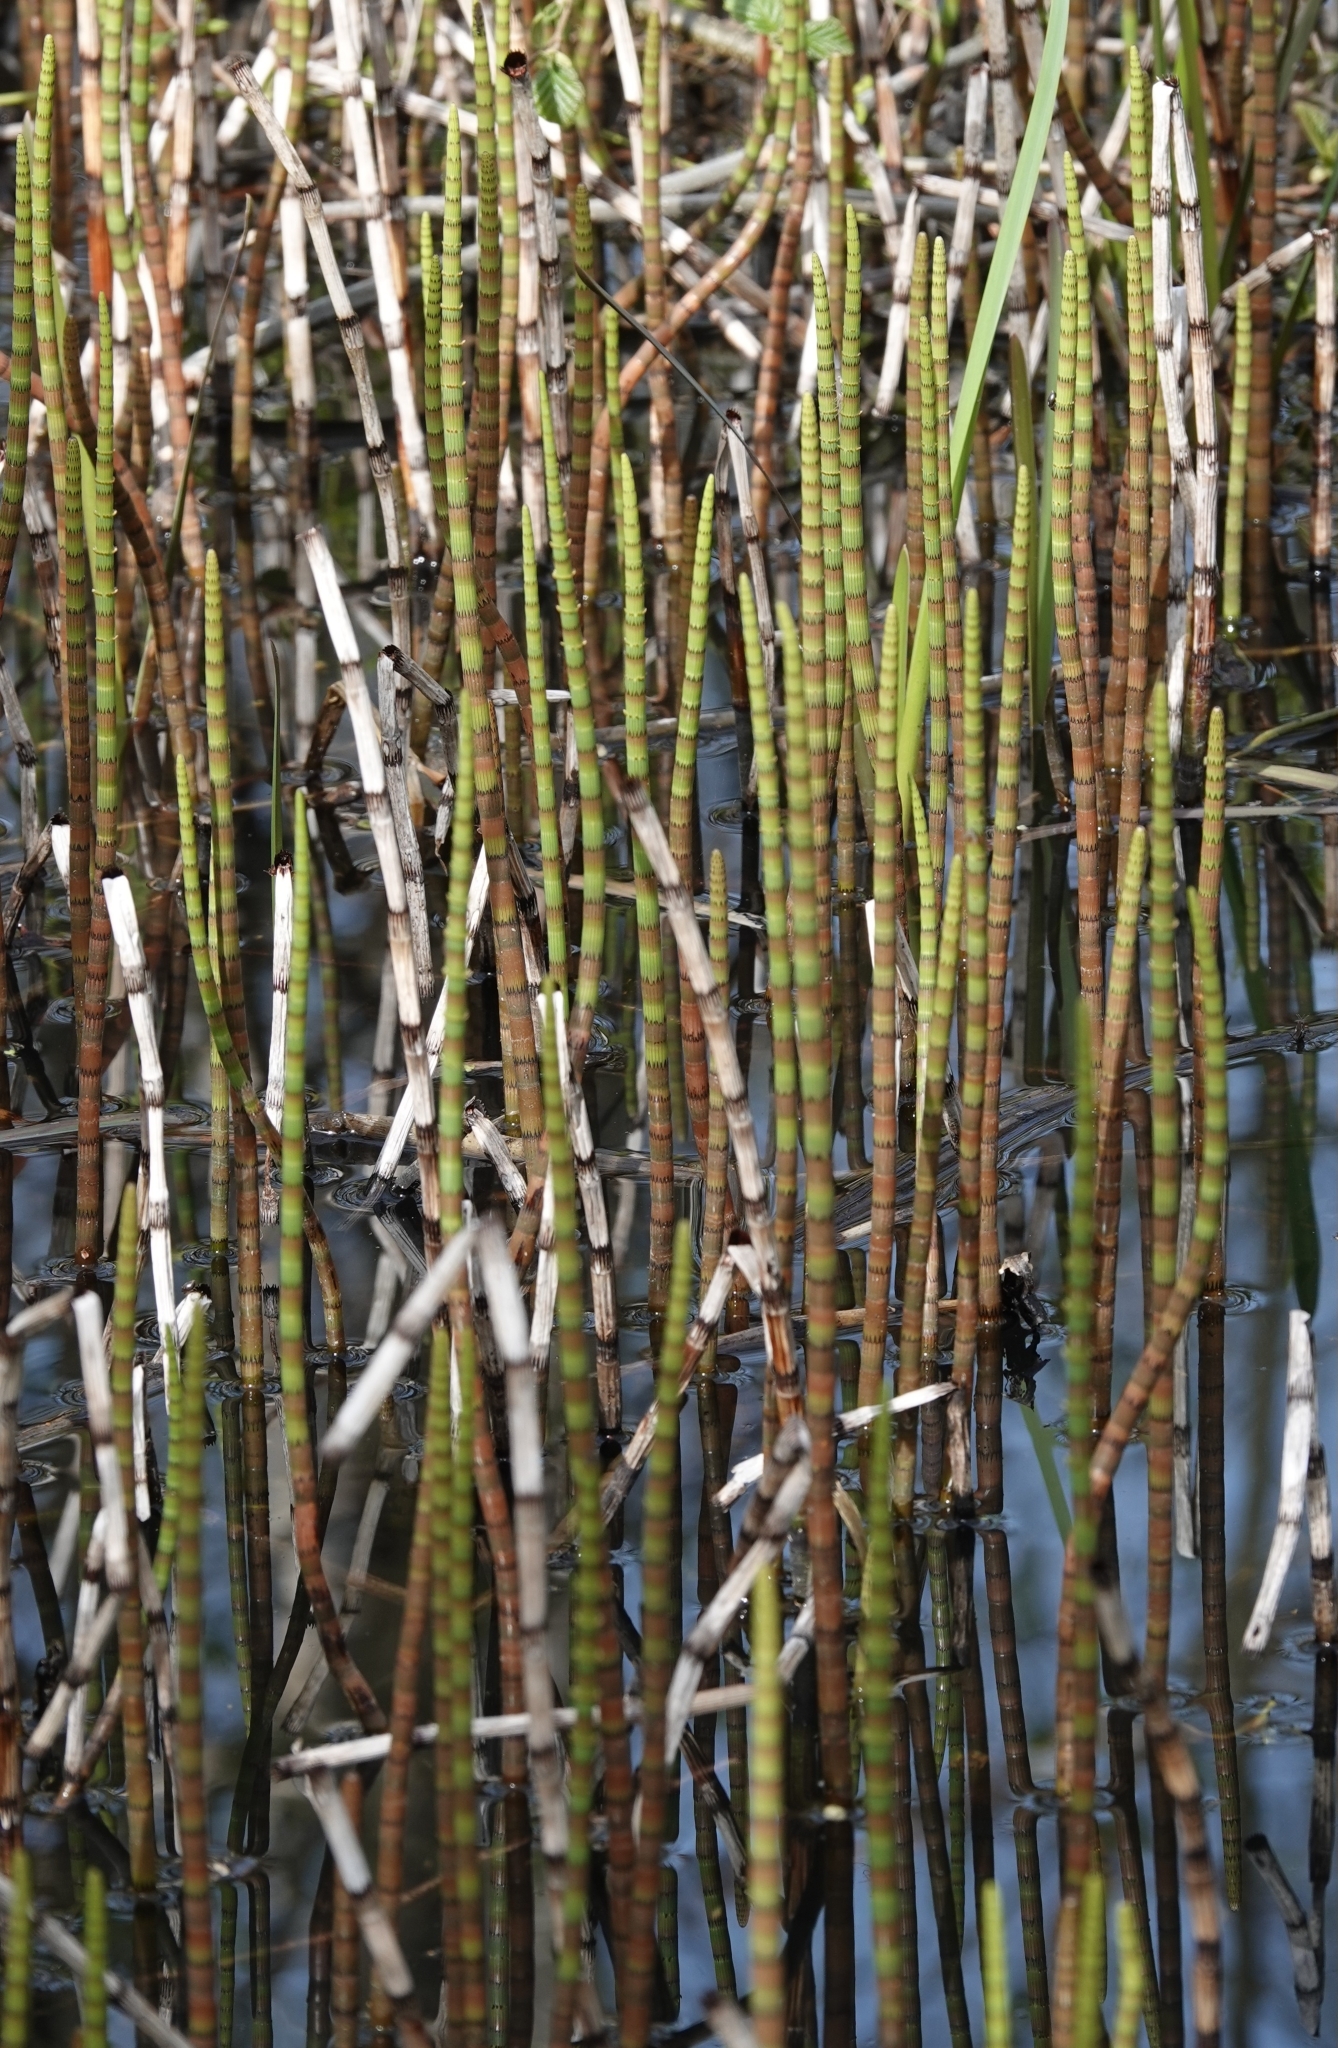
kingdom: Plantae
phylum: Tracheophyta
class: Polypodiopsida
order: Equisetales
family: Equisetaceae
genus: Equisetum
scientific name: Equisetum fluviatile
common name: Water horsetail
